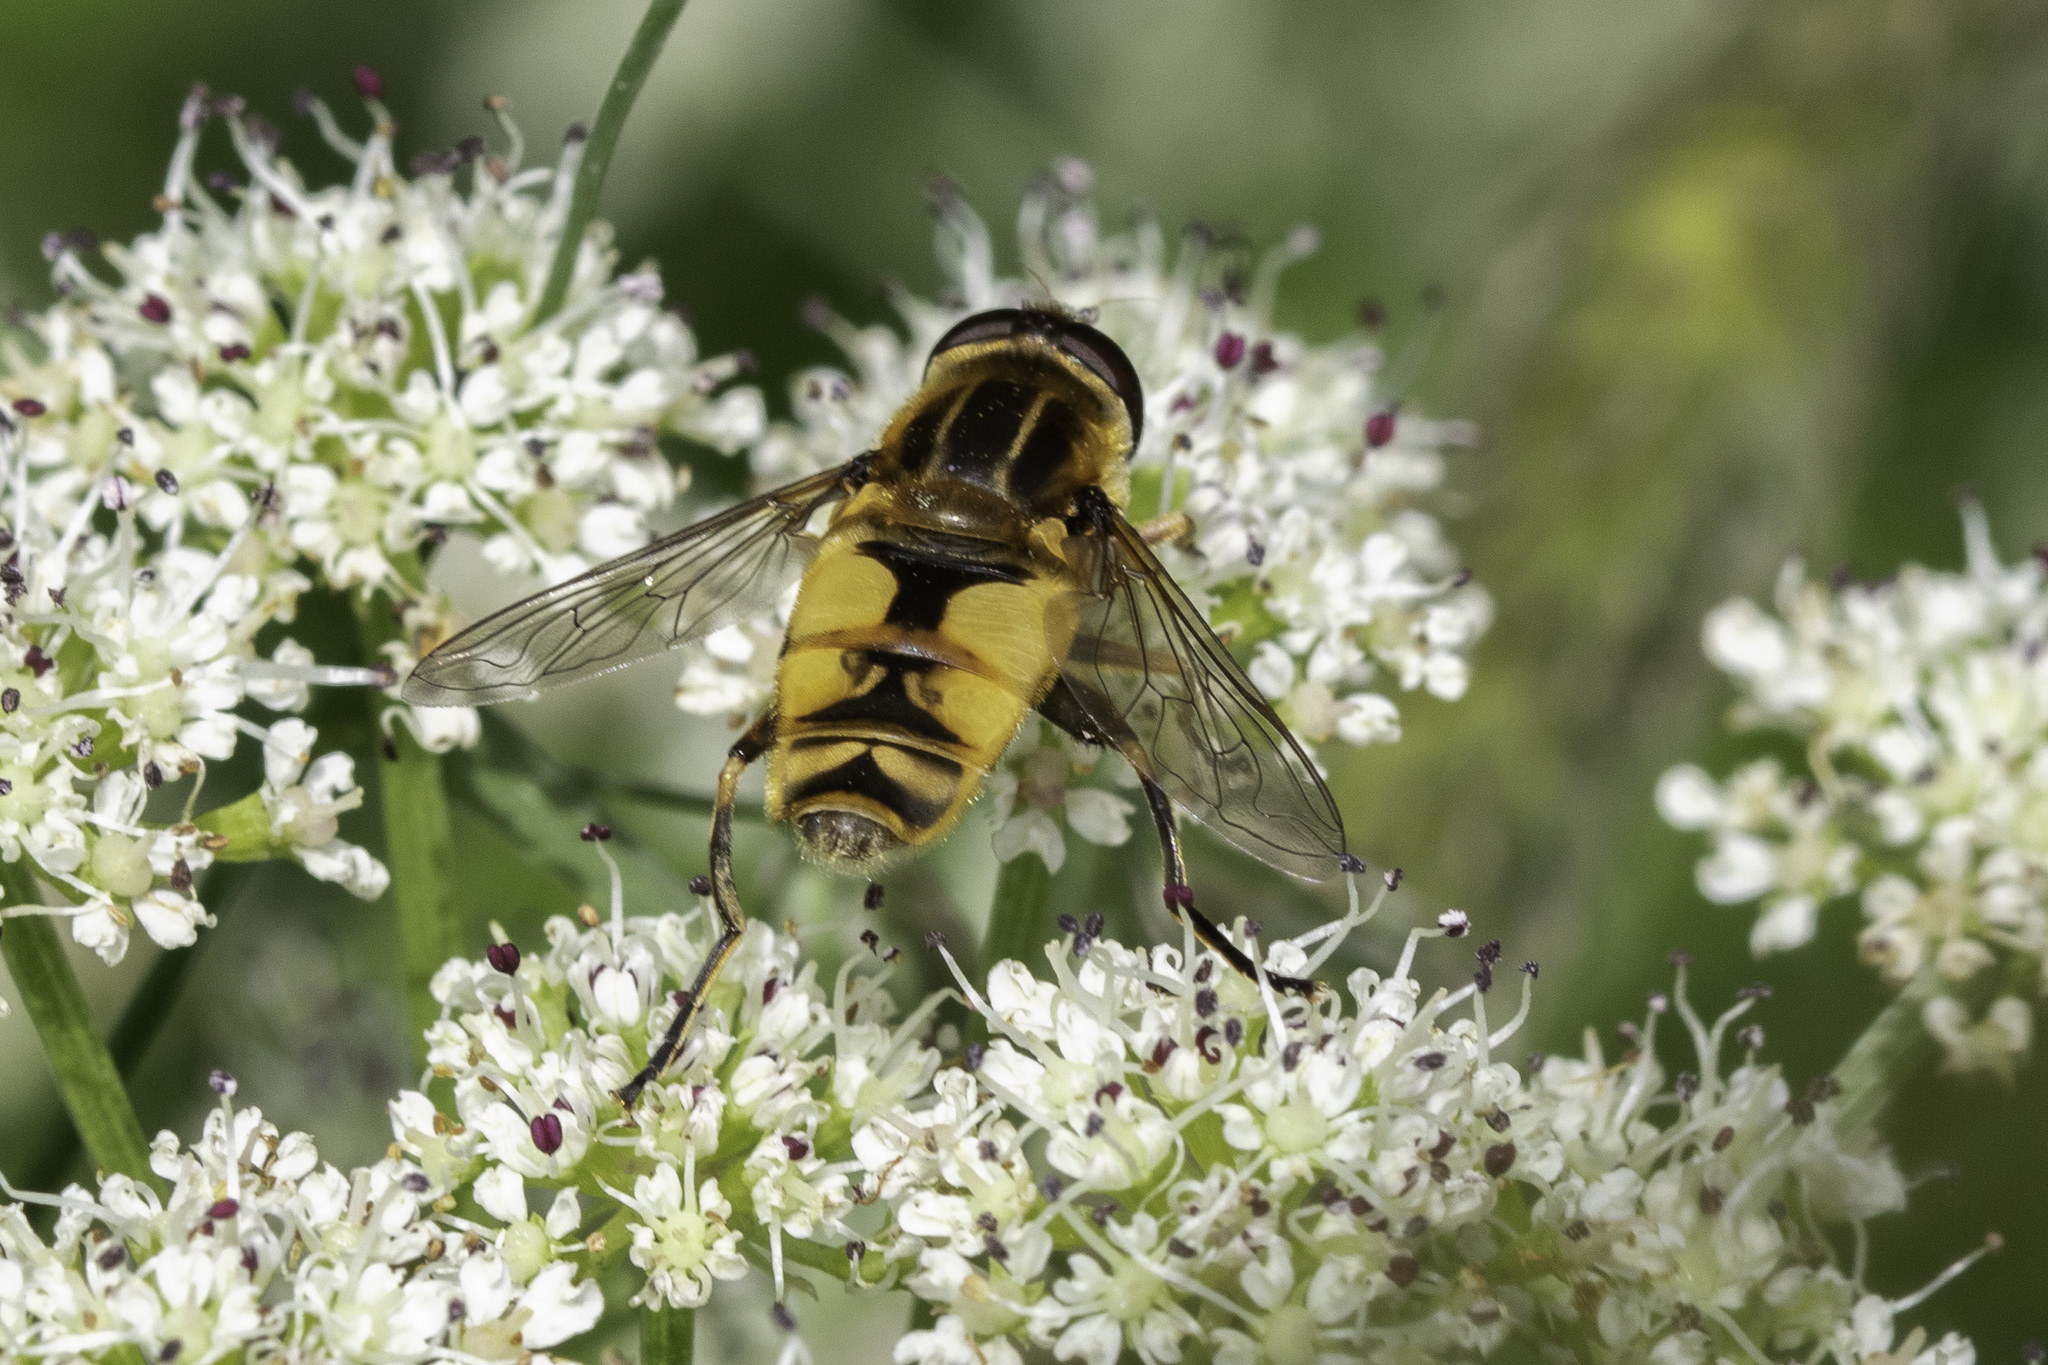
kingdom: Animalia
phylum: Arthropoda
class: Insecta
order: Diptera
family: Syrphidae
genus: Helophilus
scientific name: Helophilus hybridus
